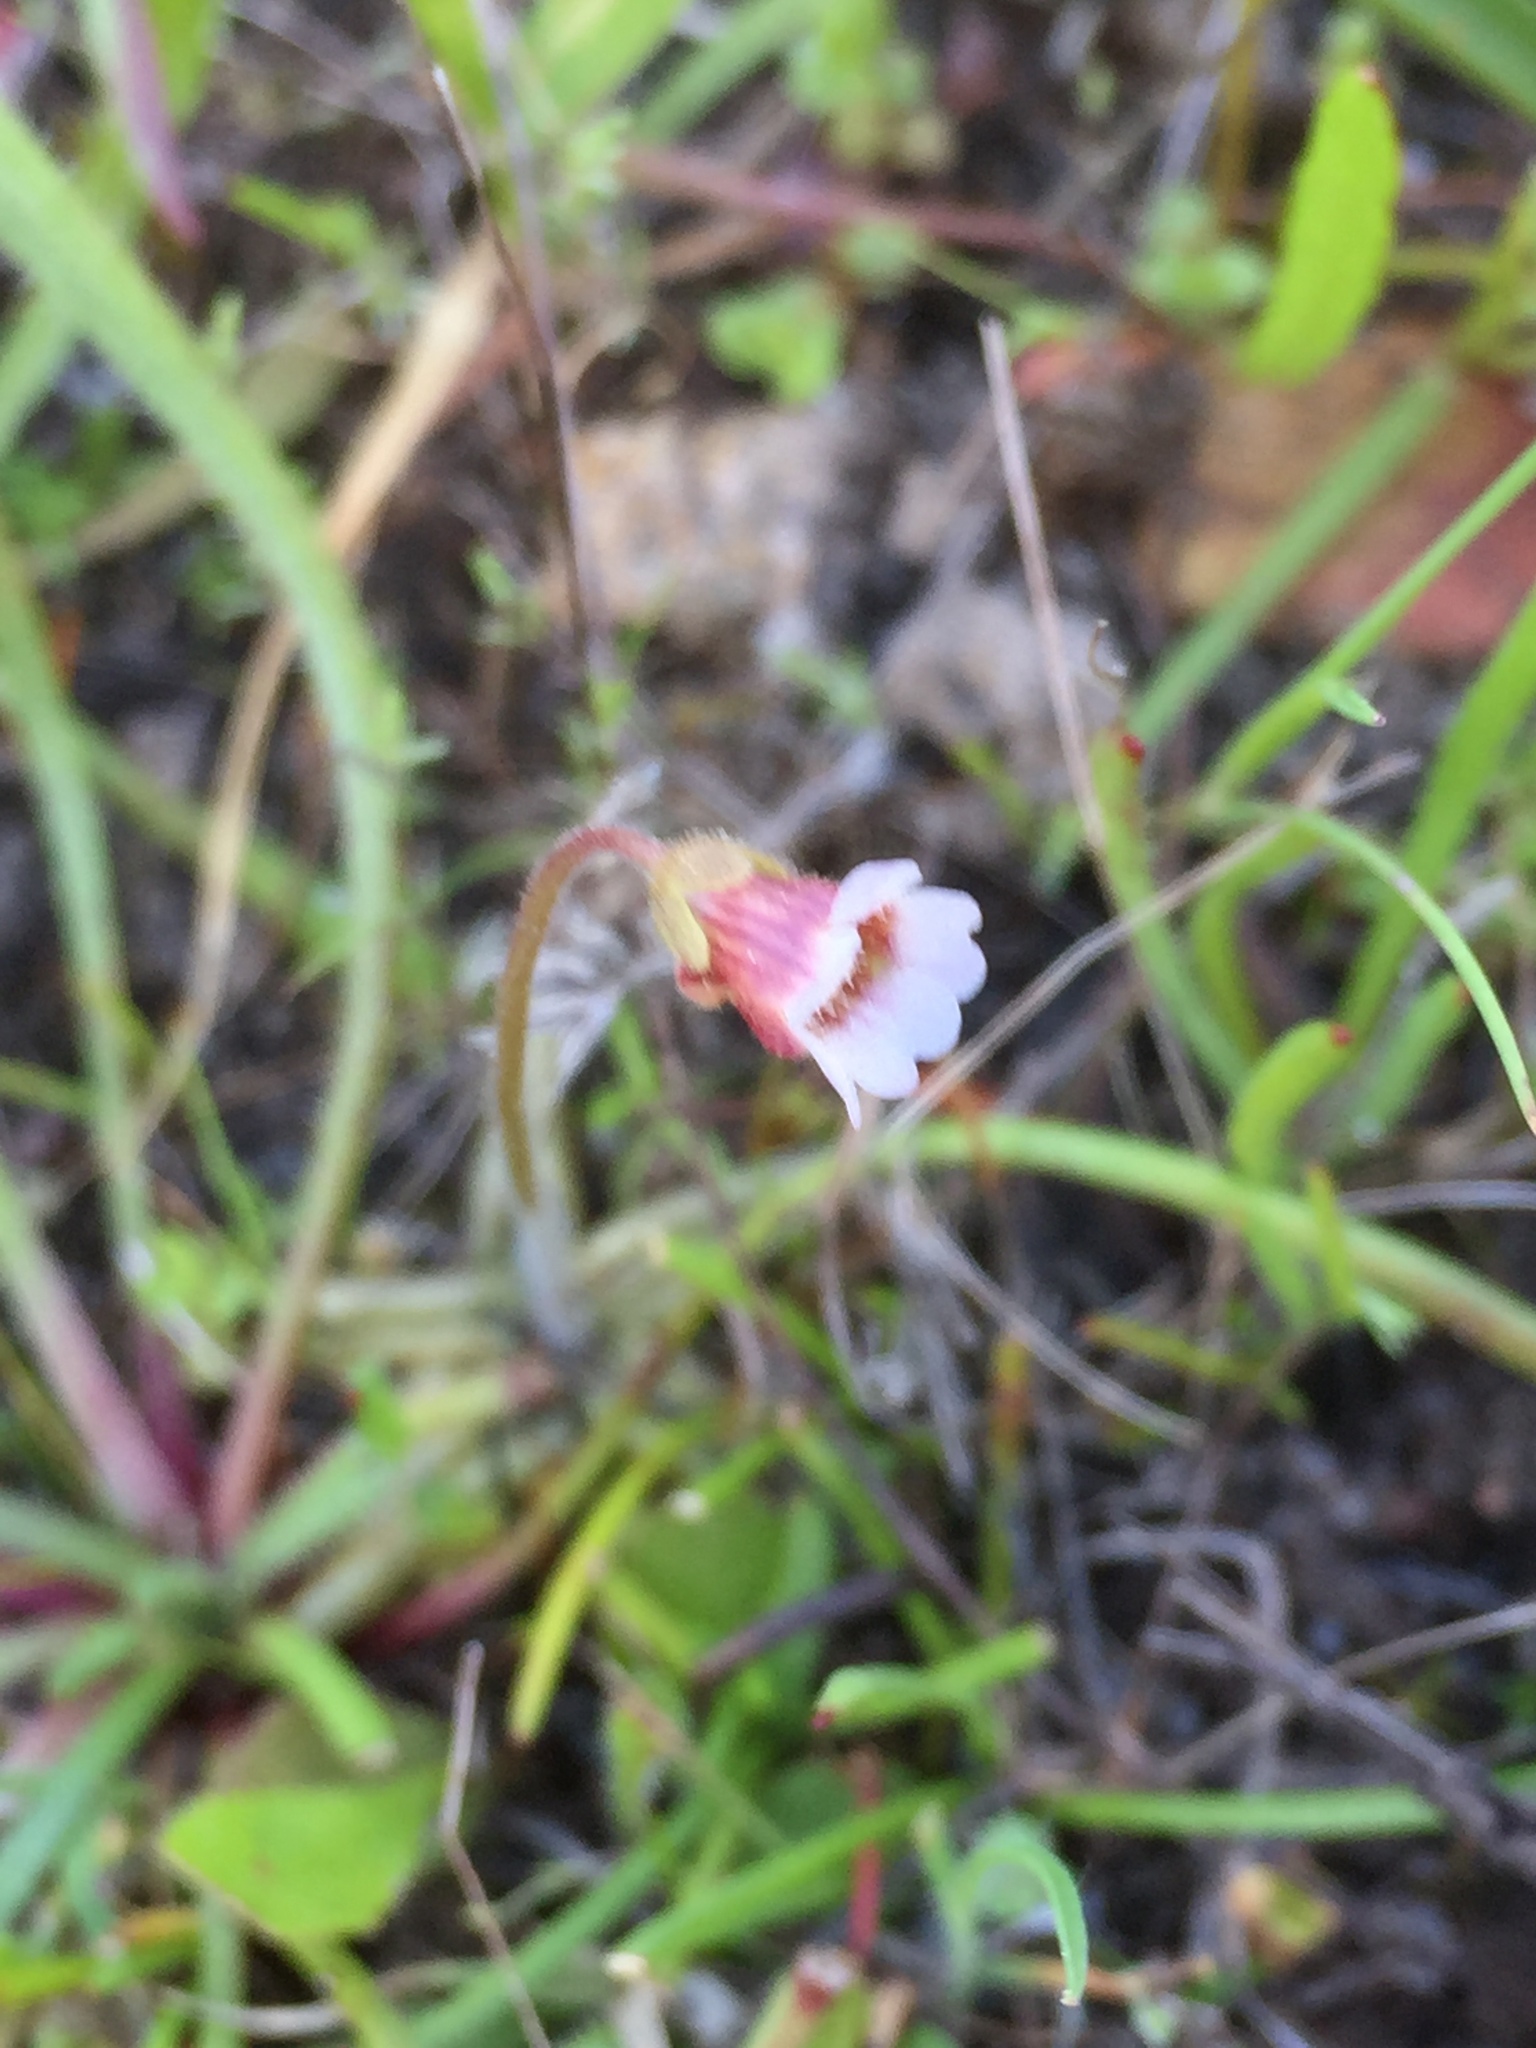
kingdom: Plantae
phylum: Tracheophyta
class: Magnoliopsida
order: Lamiales
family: Lentibulariaceae
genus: Pinguicula
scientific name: Pinguicula lusitanica
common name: Pale butterwort
